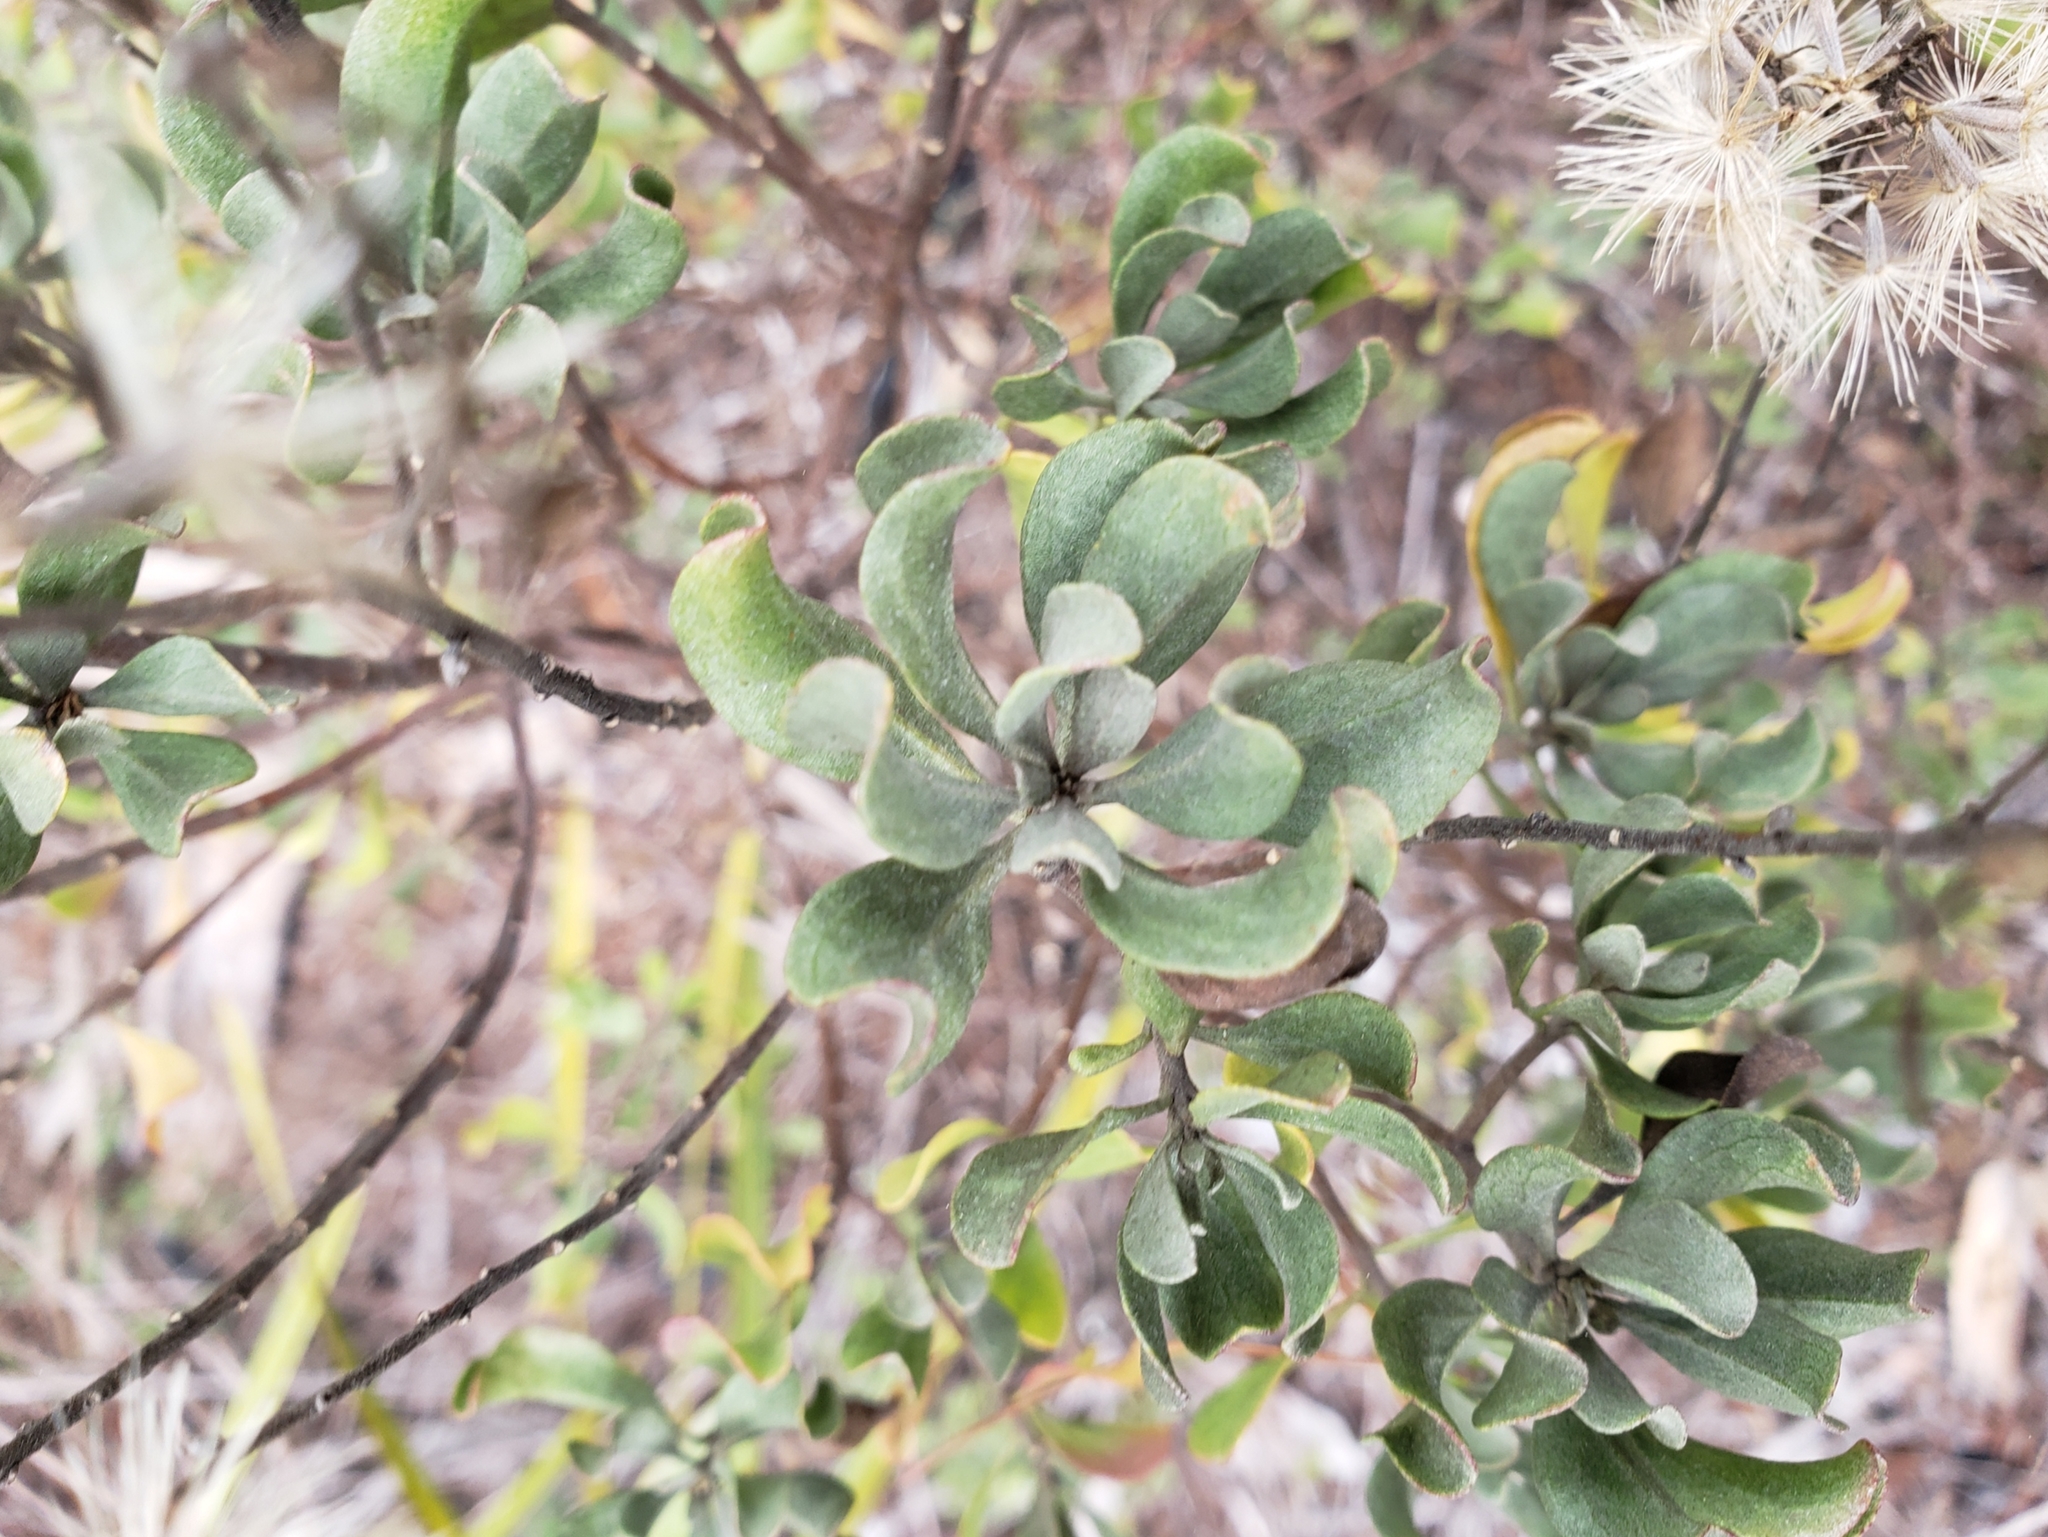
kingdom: Plantae
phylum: Tracheophyta
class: Magnoliopsida
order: Asterales
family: Asteraceae
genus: Garberia
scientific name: Garberia heterophylla
